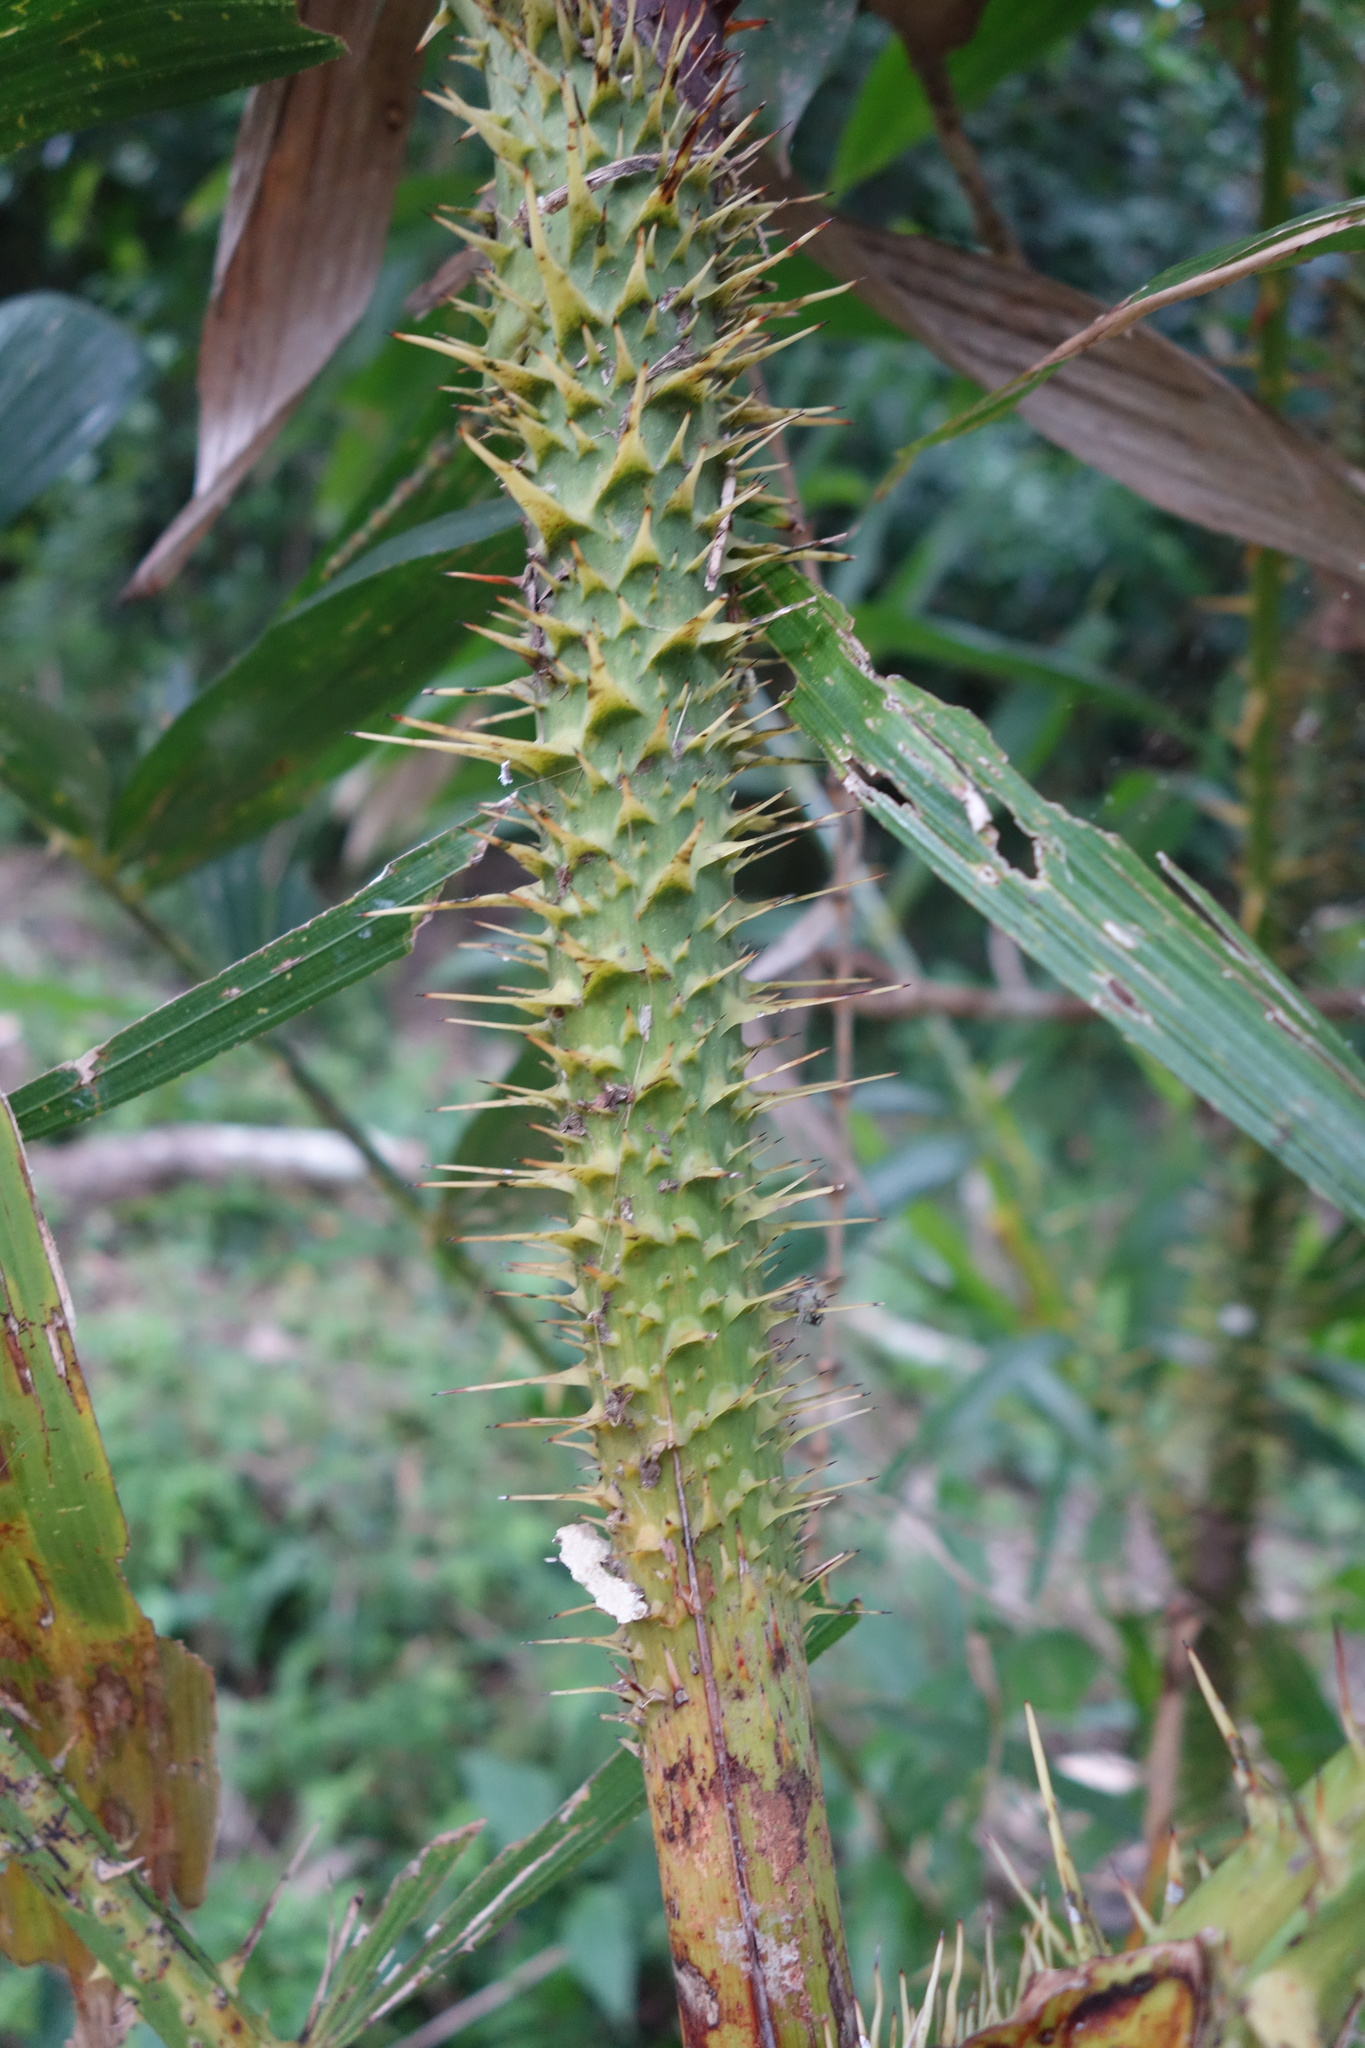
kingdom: Plantae
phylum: Tracheophyta
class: Liliopsida
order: Arecales
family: Arecaceae
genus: Calamus
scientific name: Calamus formosanus
